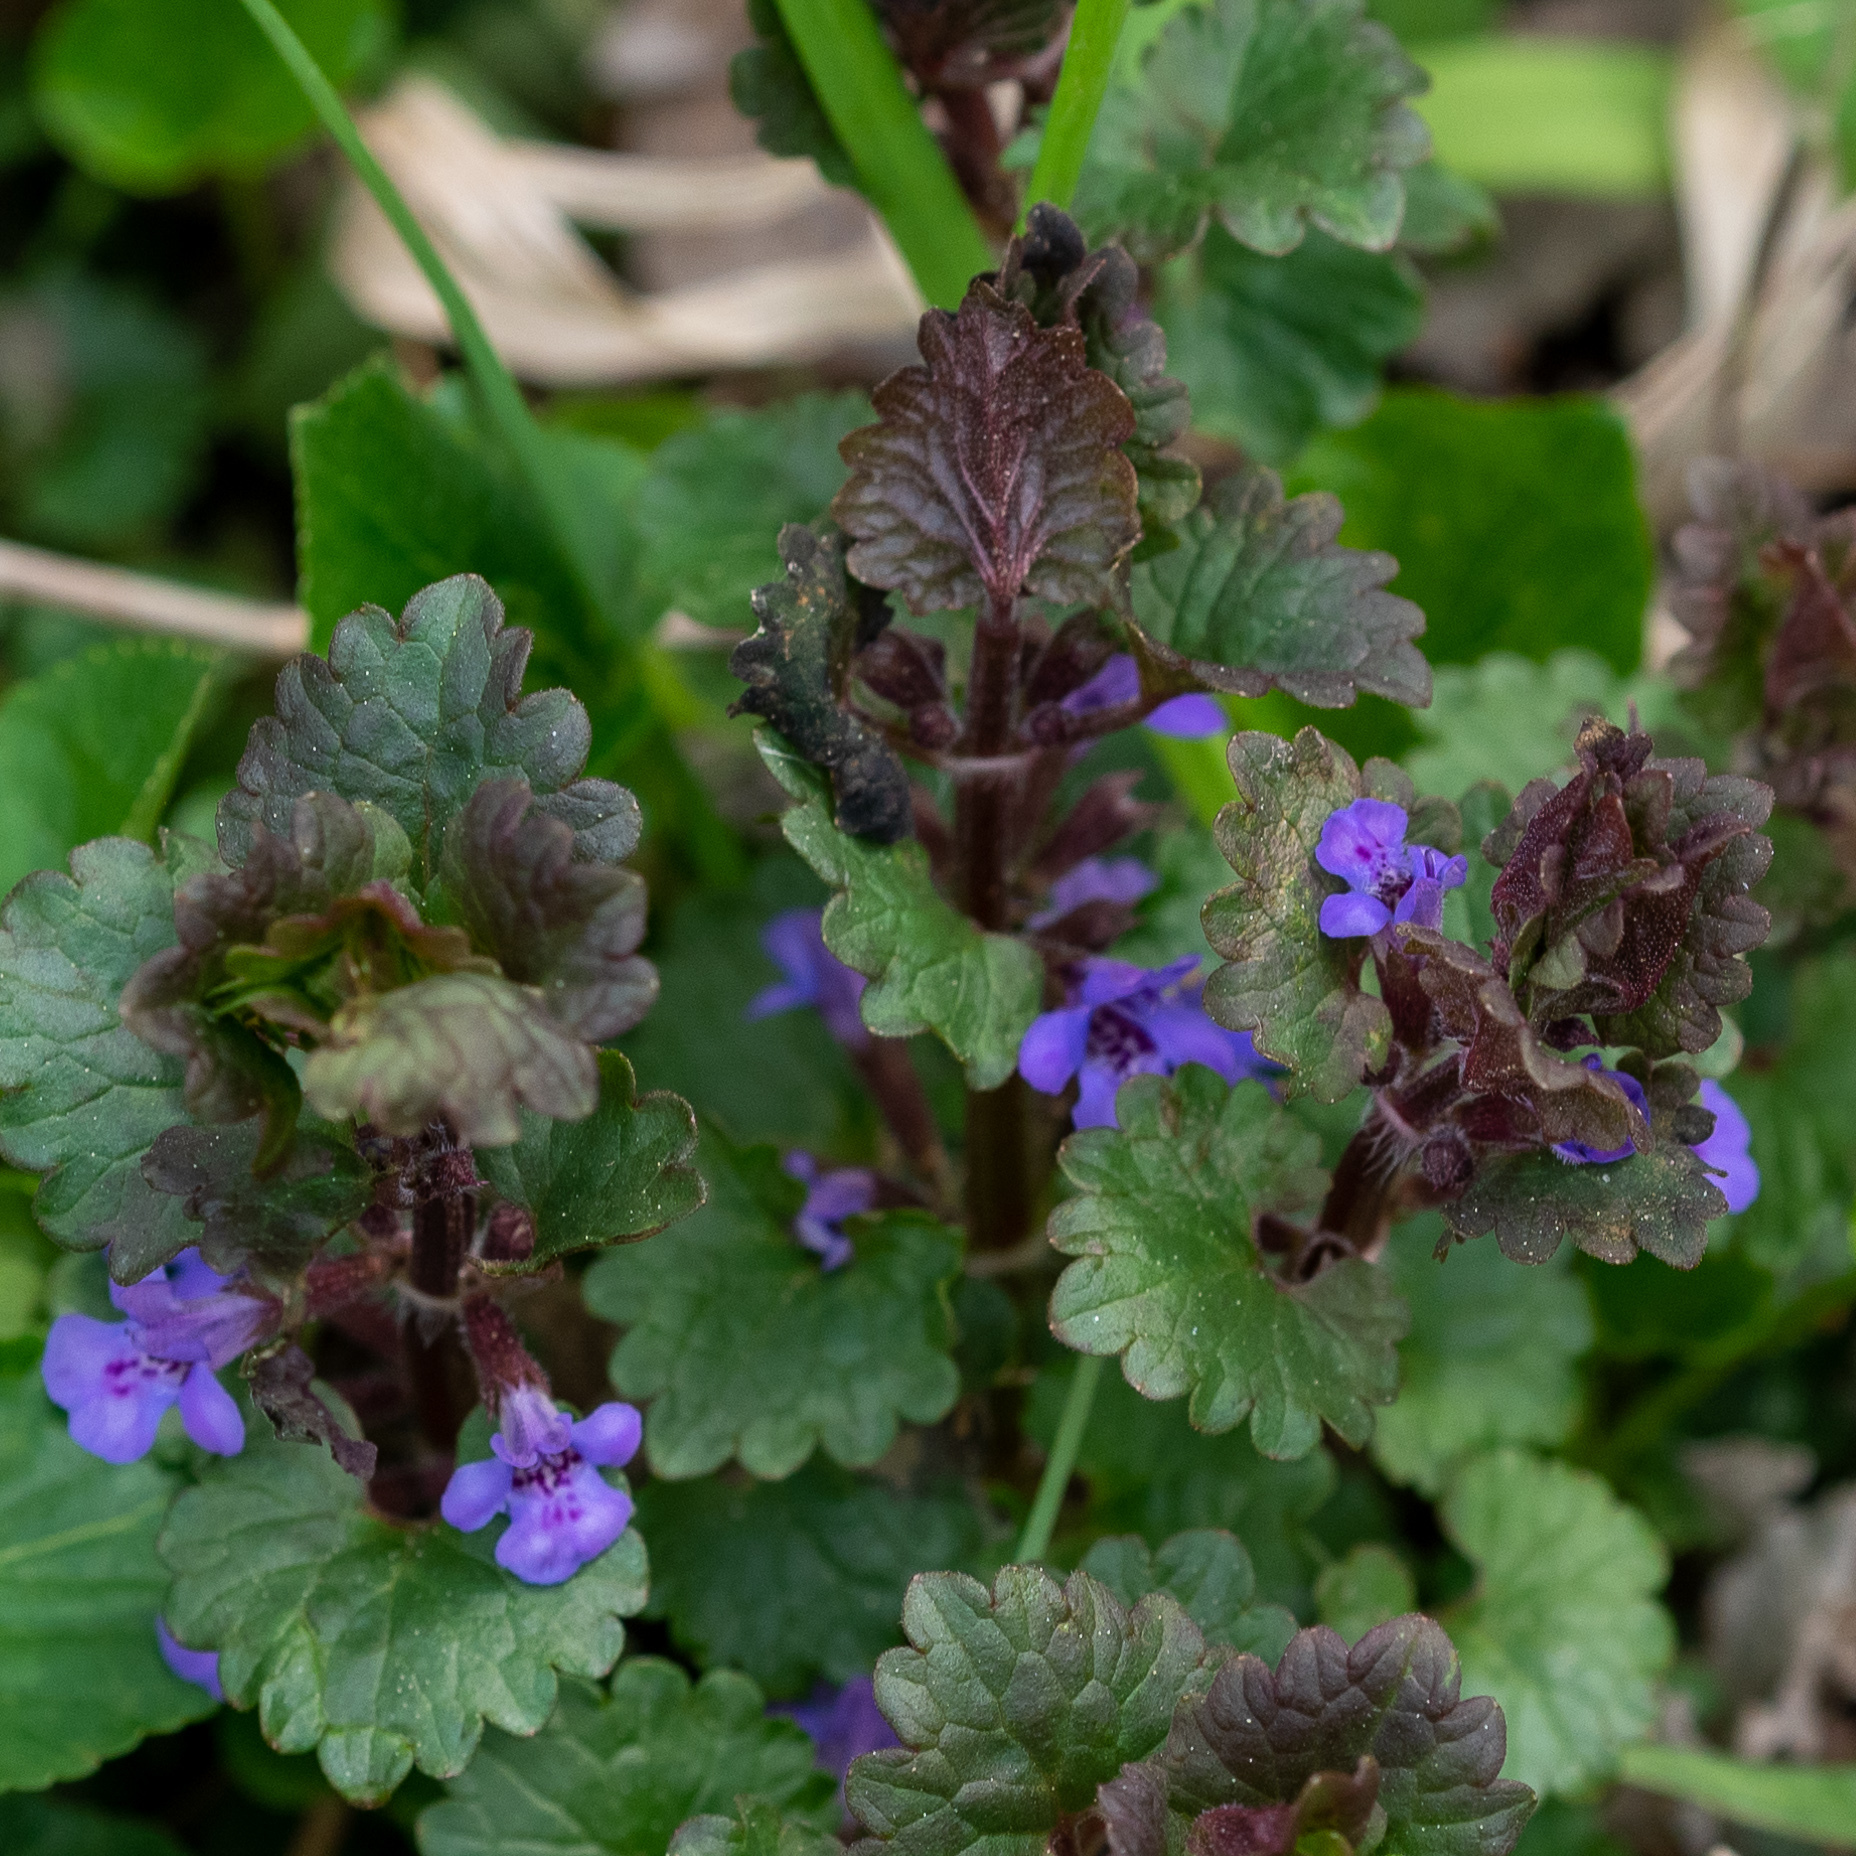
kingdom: Plantae
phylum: Tracheophyta
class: Magnoliopsida
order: Lamiales
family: Lamiaceae
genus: Glechoma
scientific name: Glechoma hederacea
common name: Ground ivy
